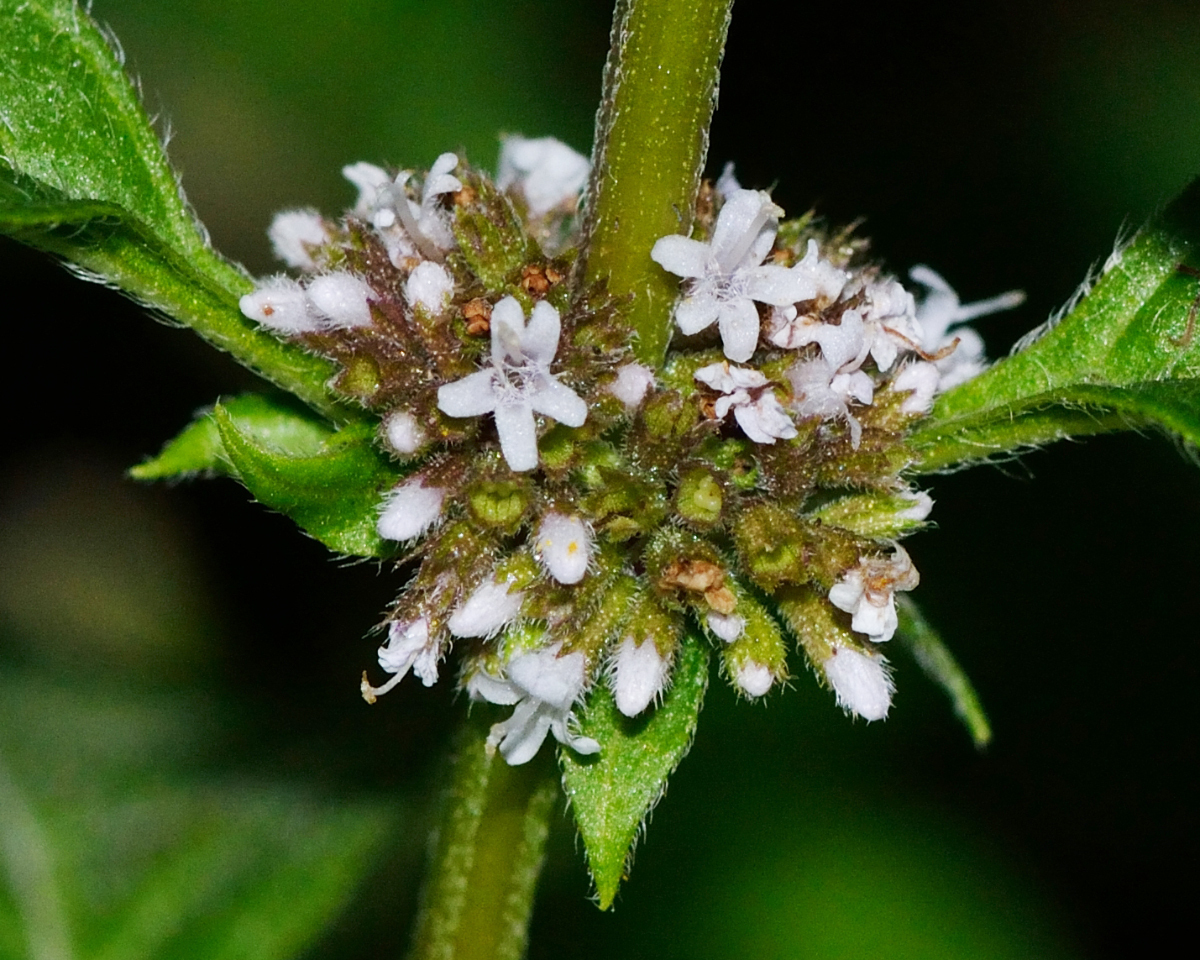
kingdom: Plantae
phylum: Tracheophyta
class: Magnoliopsida
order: Lamiales
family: Lamiaceae
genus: Mentha
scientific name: Mentha arvensis
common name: Corn mint
